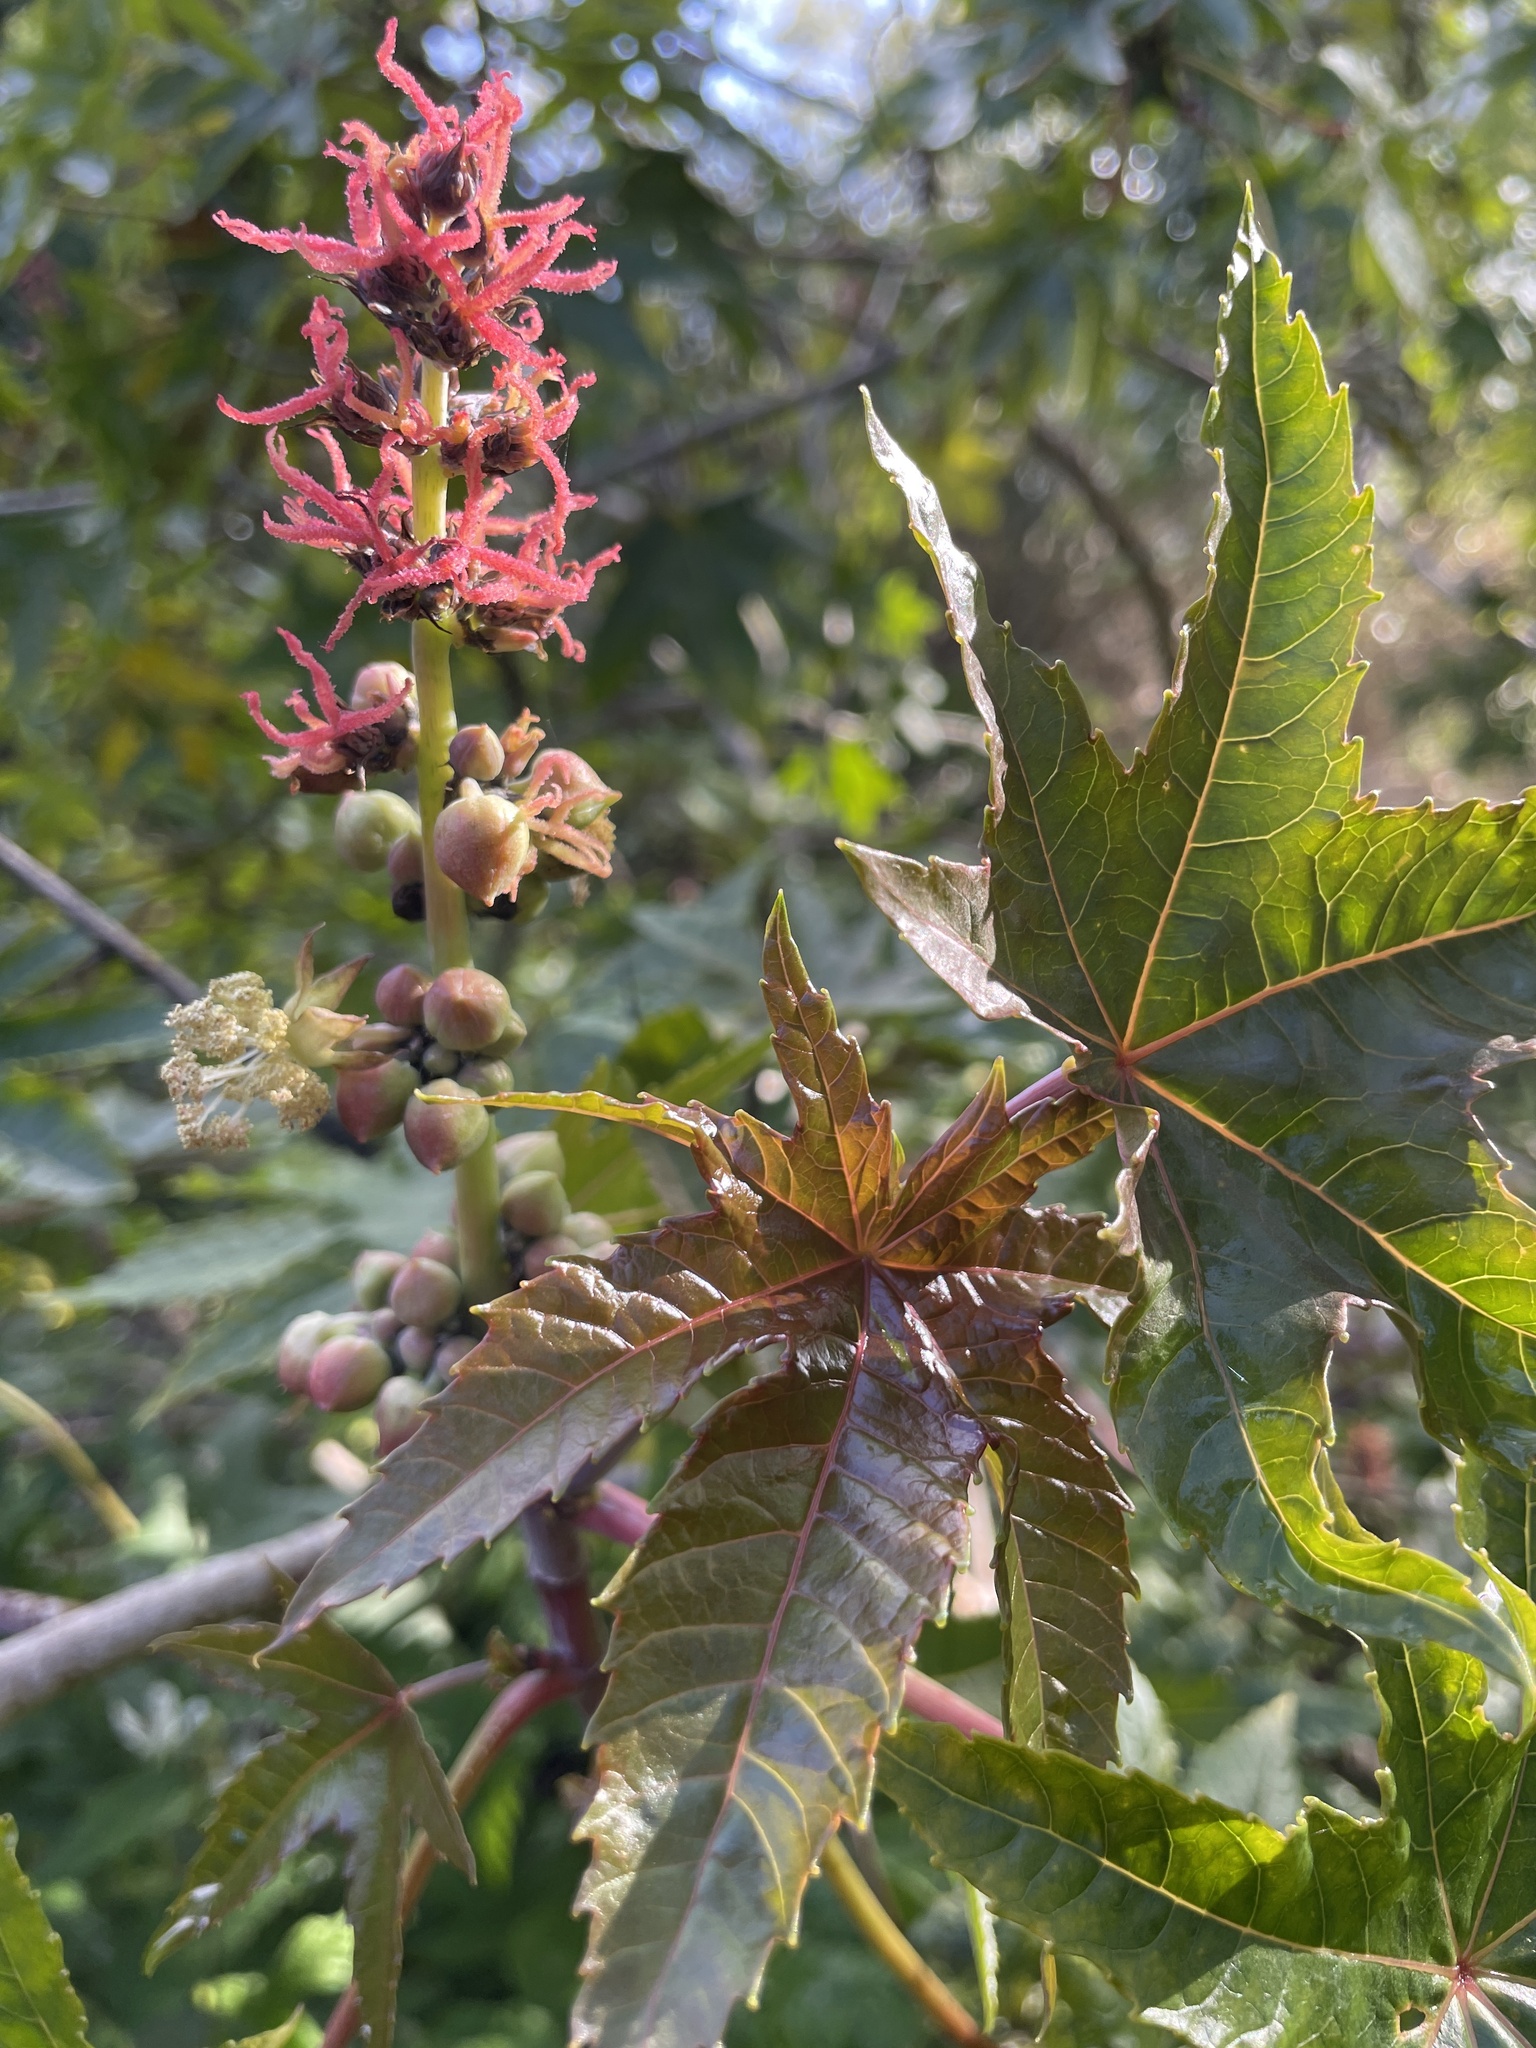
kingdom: Plantae
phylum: Tracheophyta
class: Magnoliopsida
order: Malpighiales
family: Euphorbiaceae
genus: Ricinus
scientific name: Ricinus communis
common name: Castor-oil-plant
